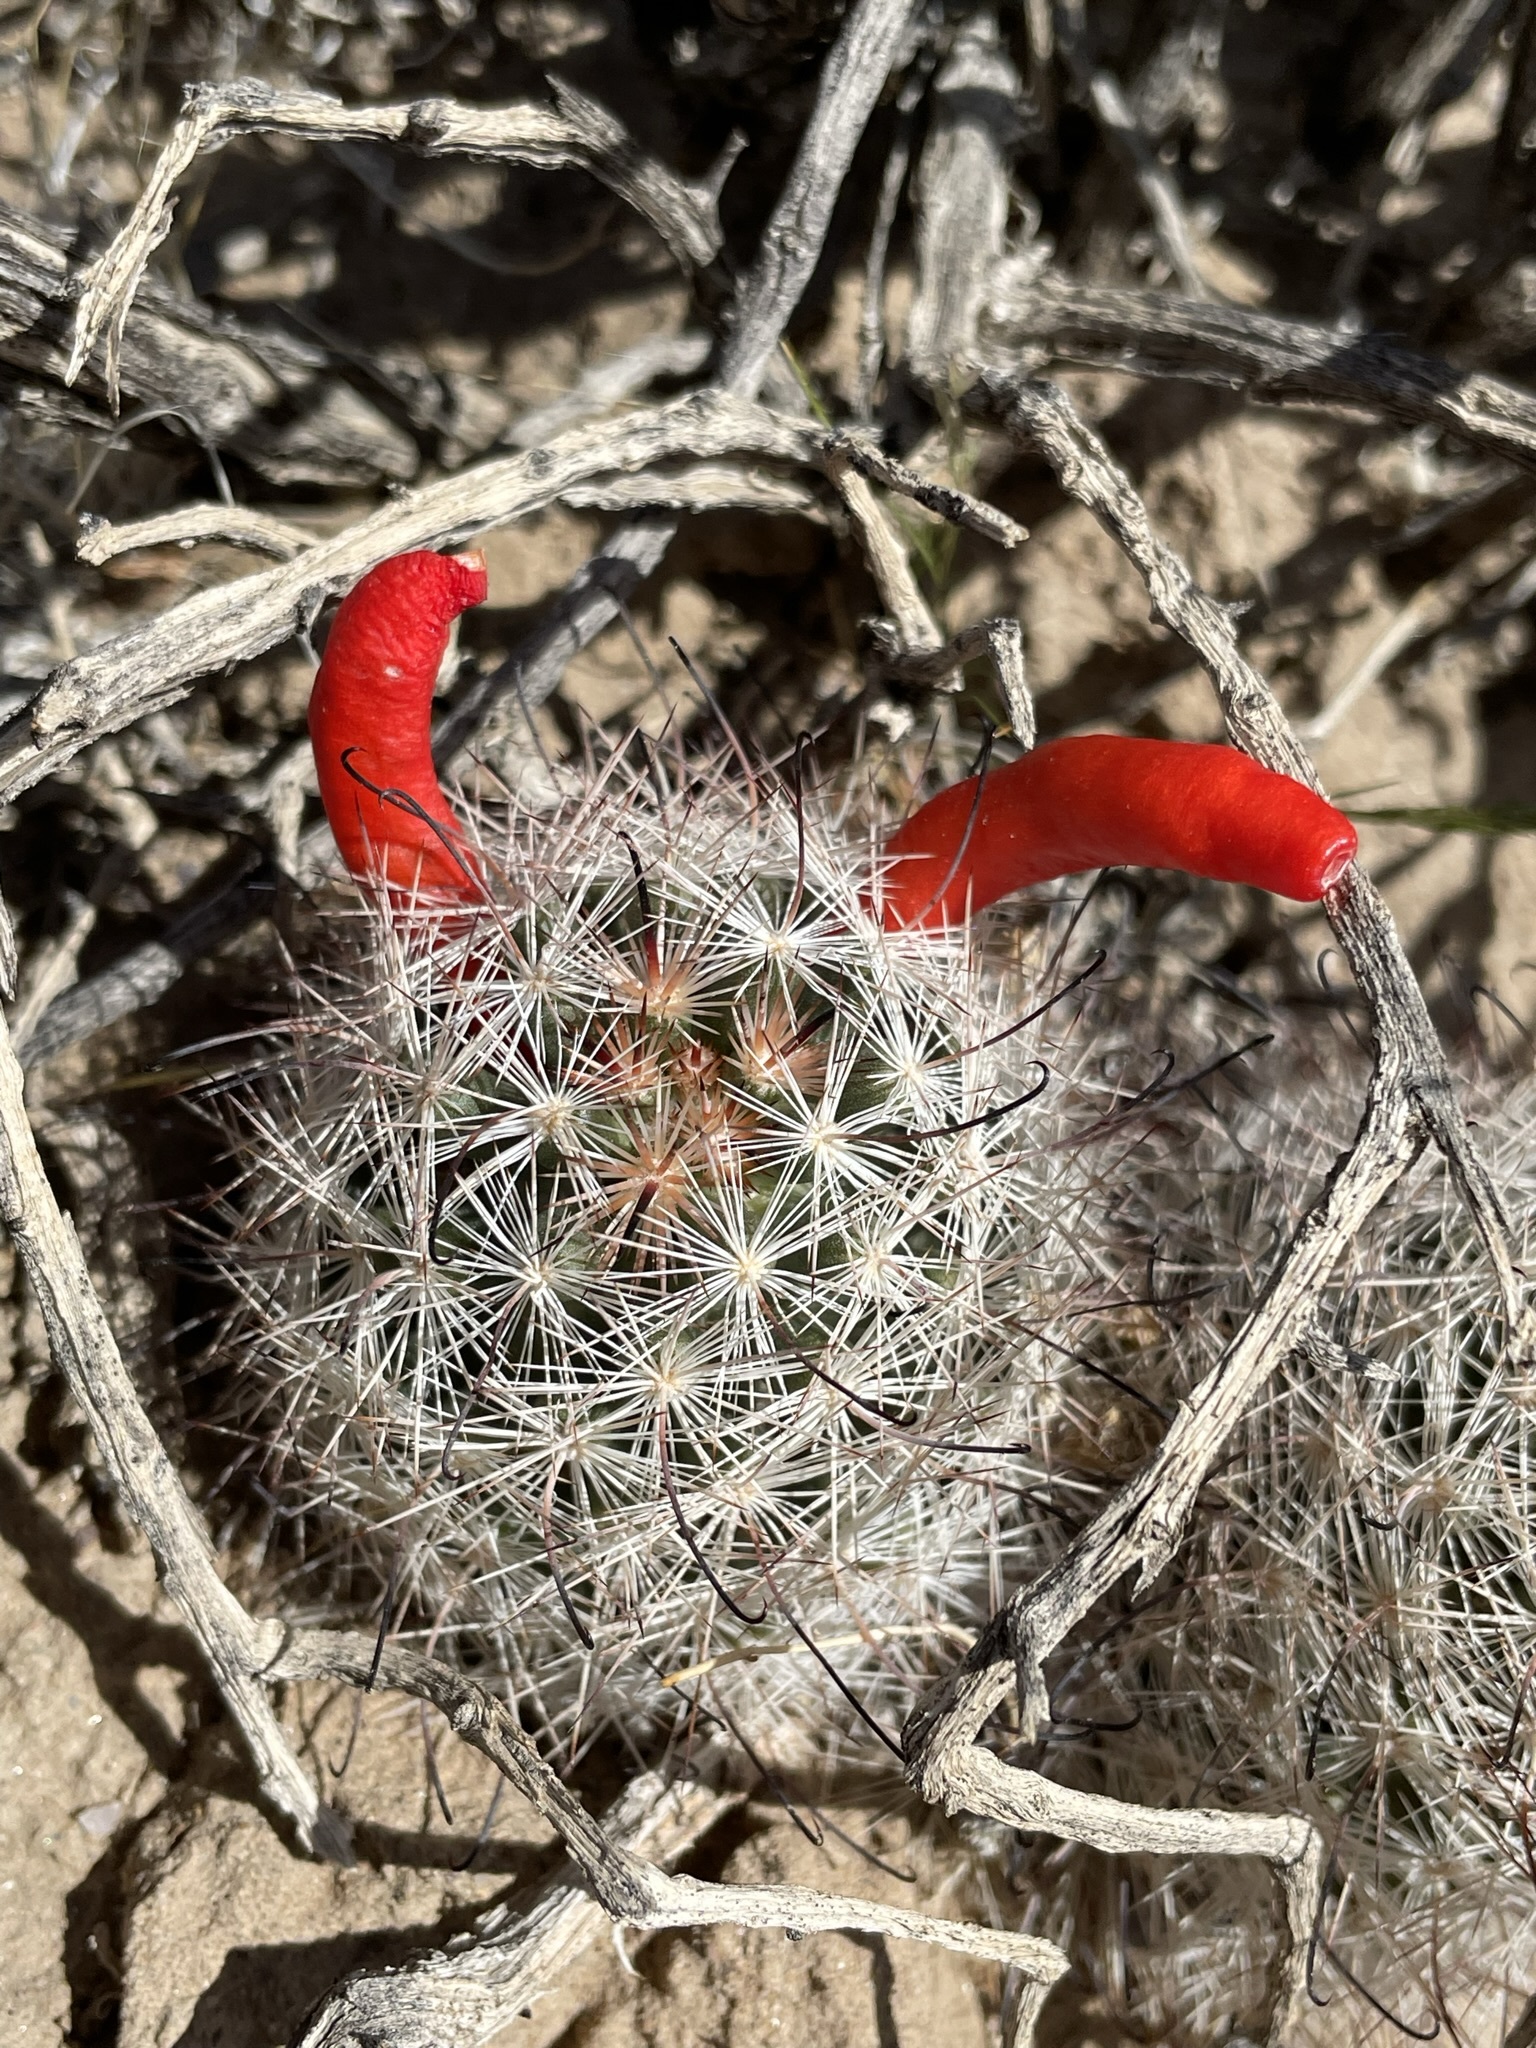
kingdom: Plantae
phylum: Tracheophyta
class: Magnoliopsida
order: Caryophyllales
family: Cactaceae
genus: Cochemiea
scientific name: Cochemiea tetrancistra
